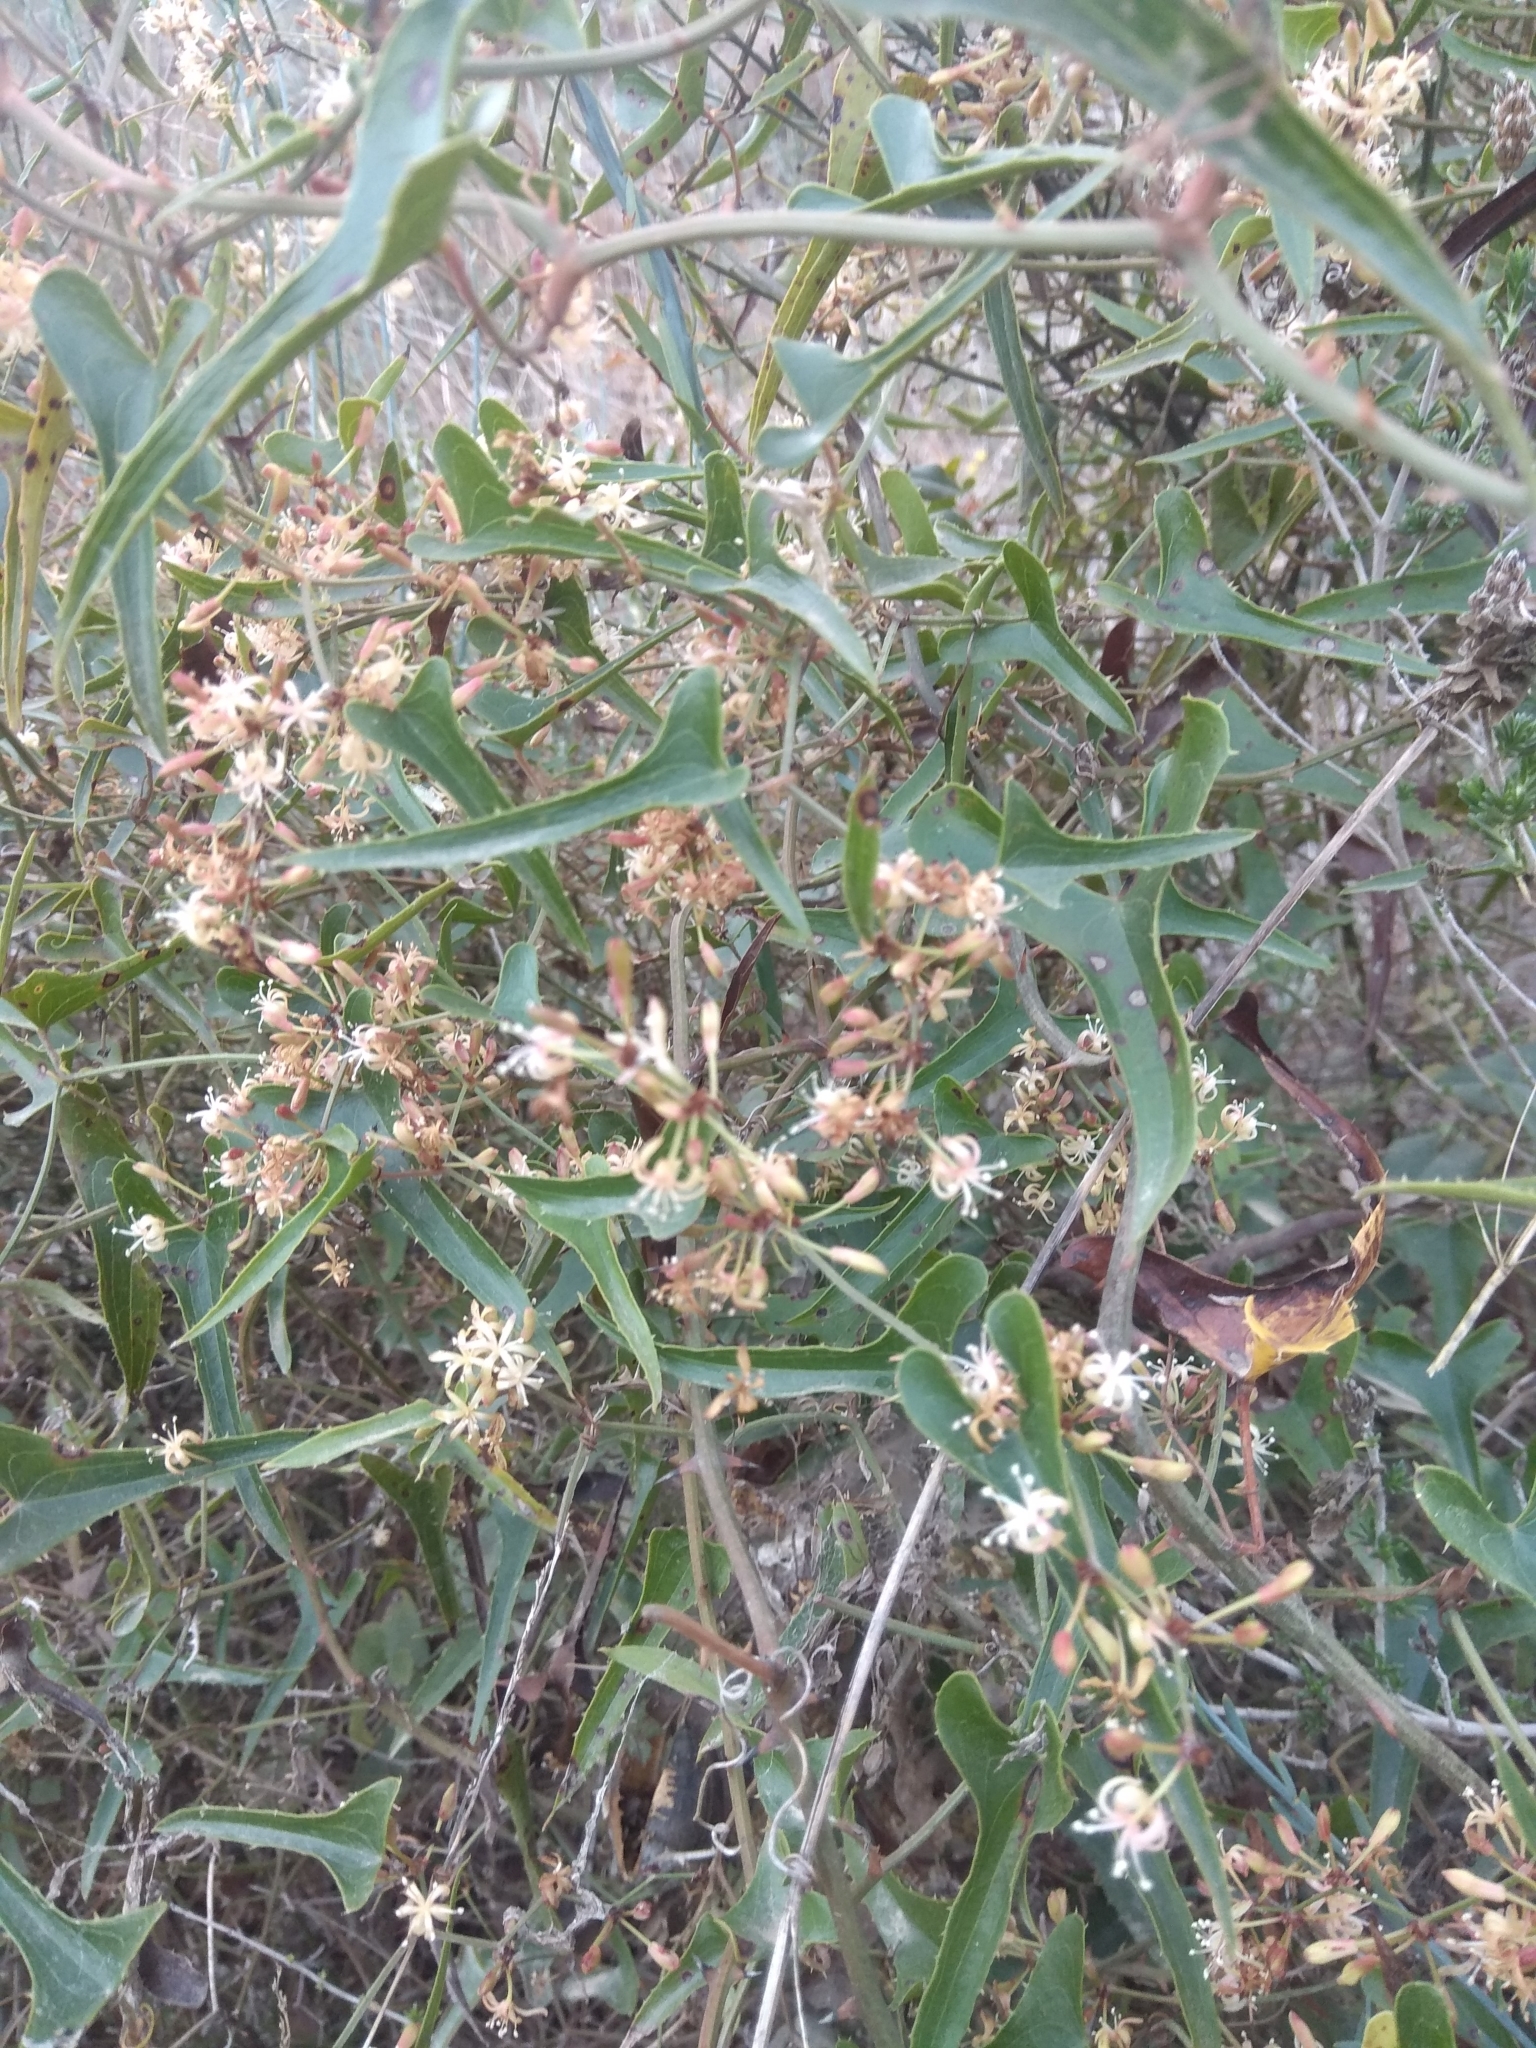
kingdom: Plantae
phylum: Tracheophyta
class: Liliopsida
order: Liliales
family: Smilacaceae
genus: Smilax
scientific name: Smilax aspera
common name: Common smilax
